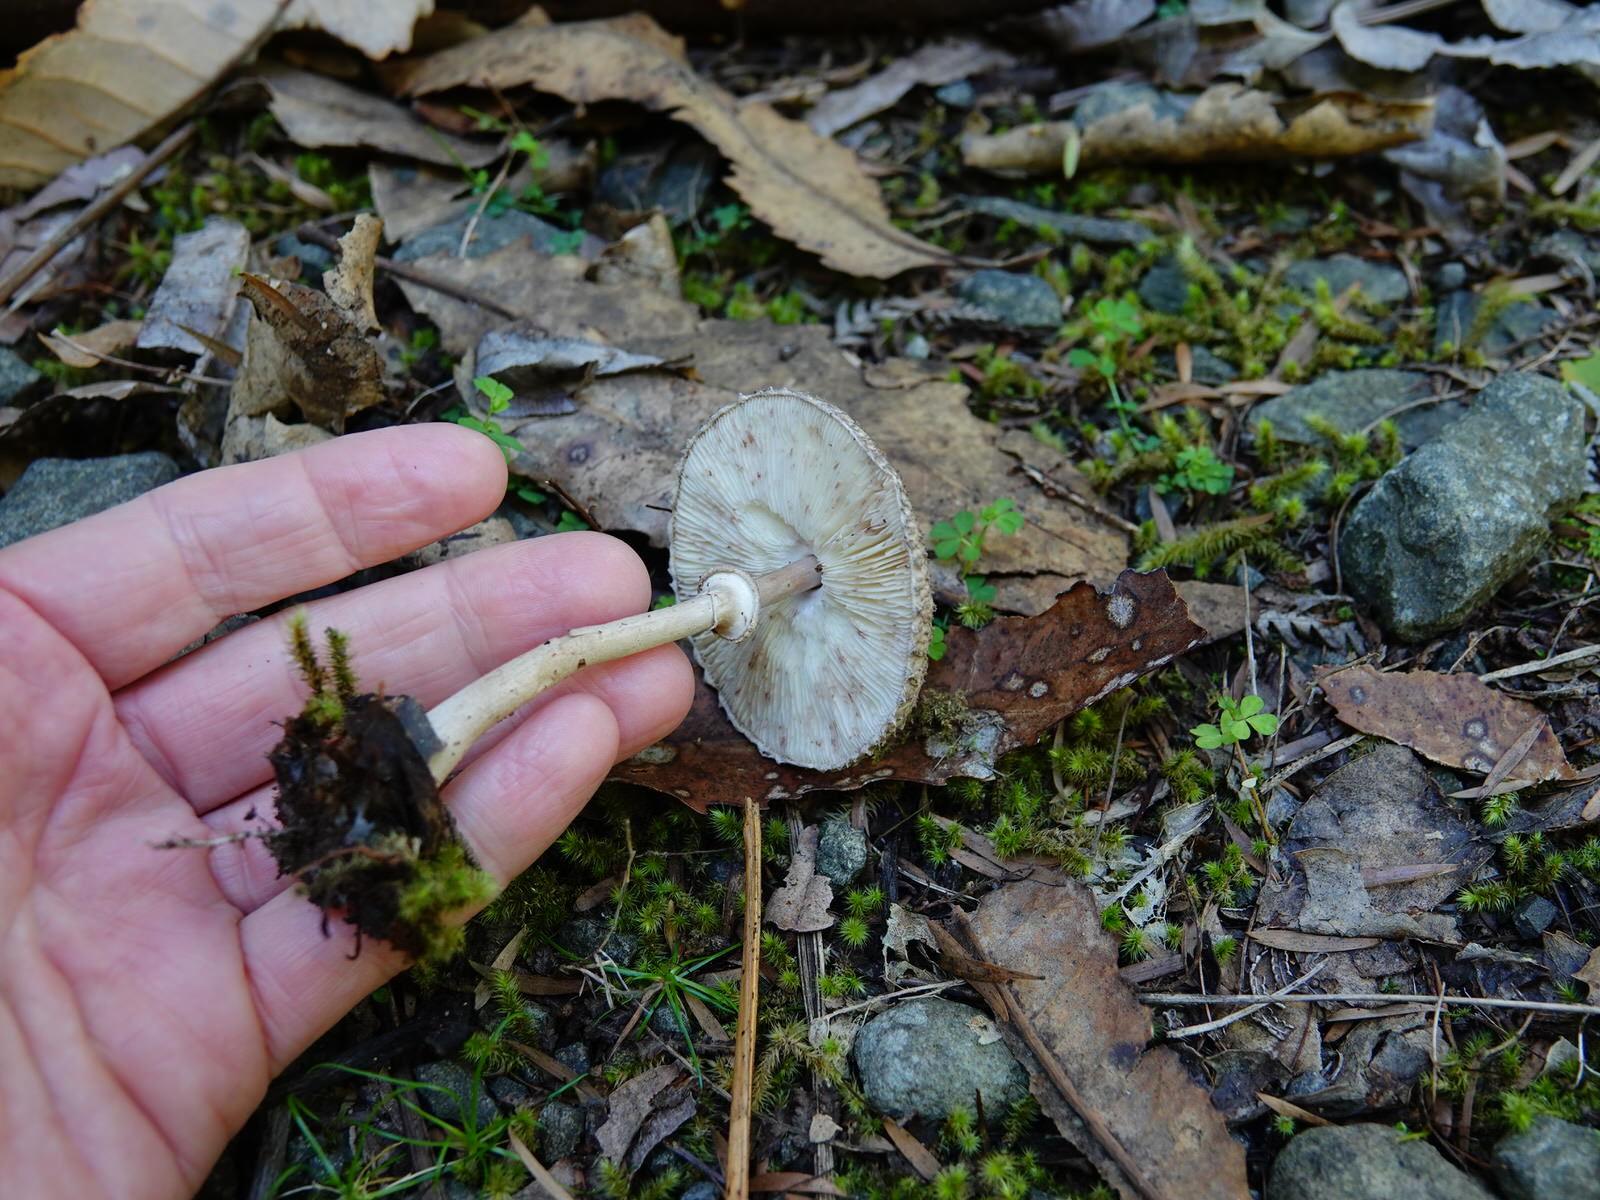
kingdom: Fungi
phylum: Basidiomycota
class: Agaricomycetes
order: Agaricales
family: Agaricaceae
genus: Macrolepiota
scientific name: Macrolepiota clelandii
